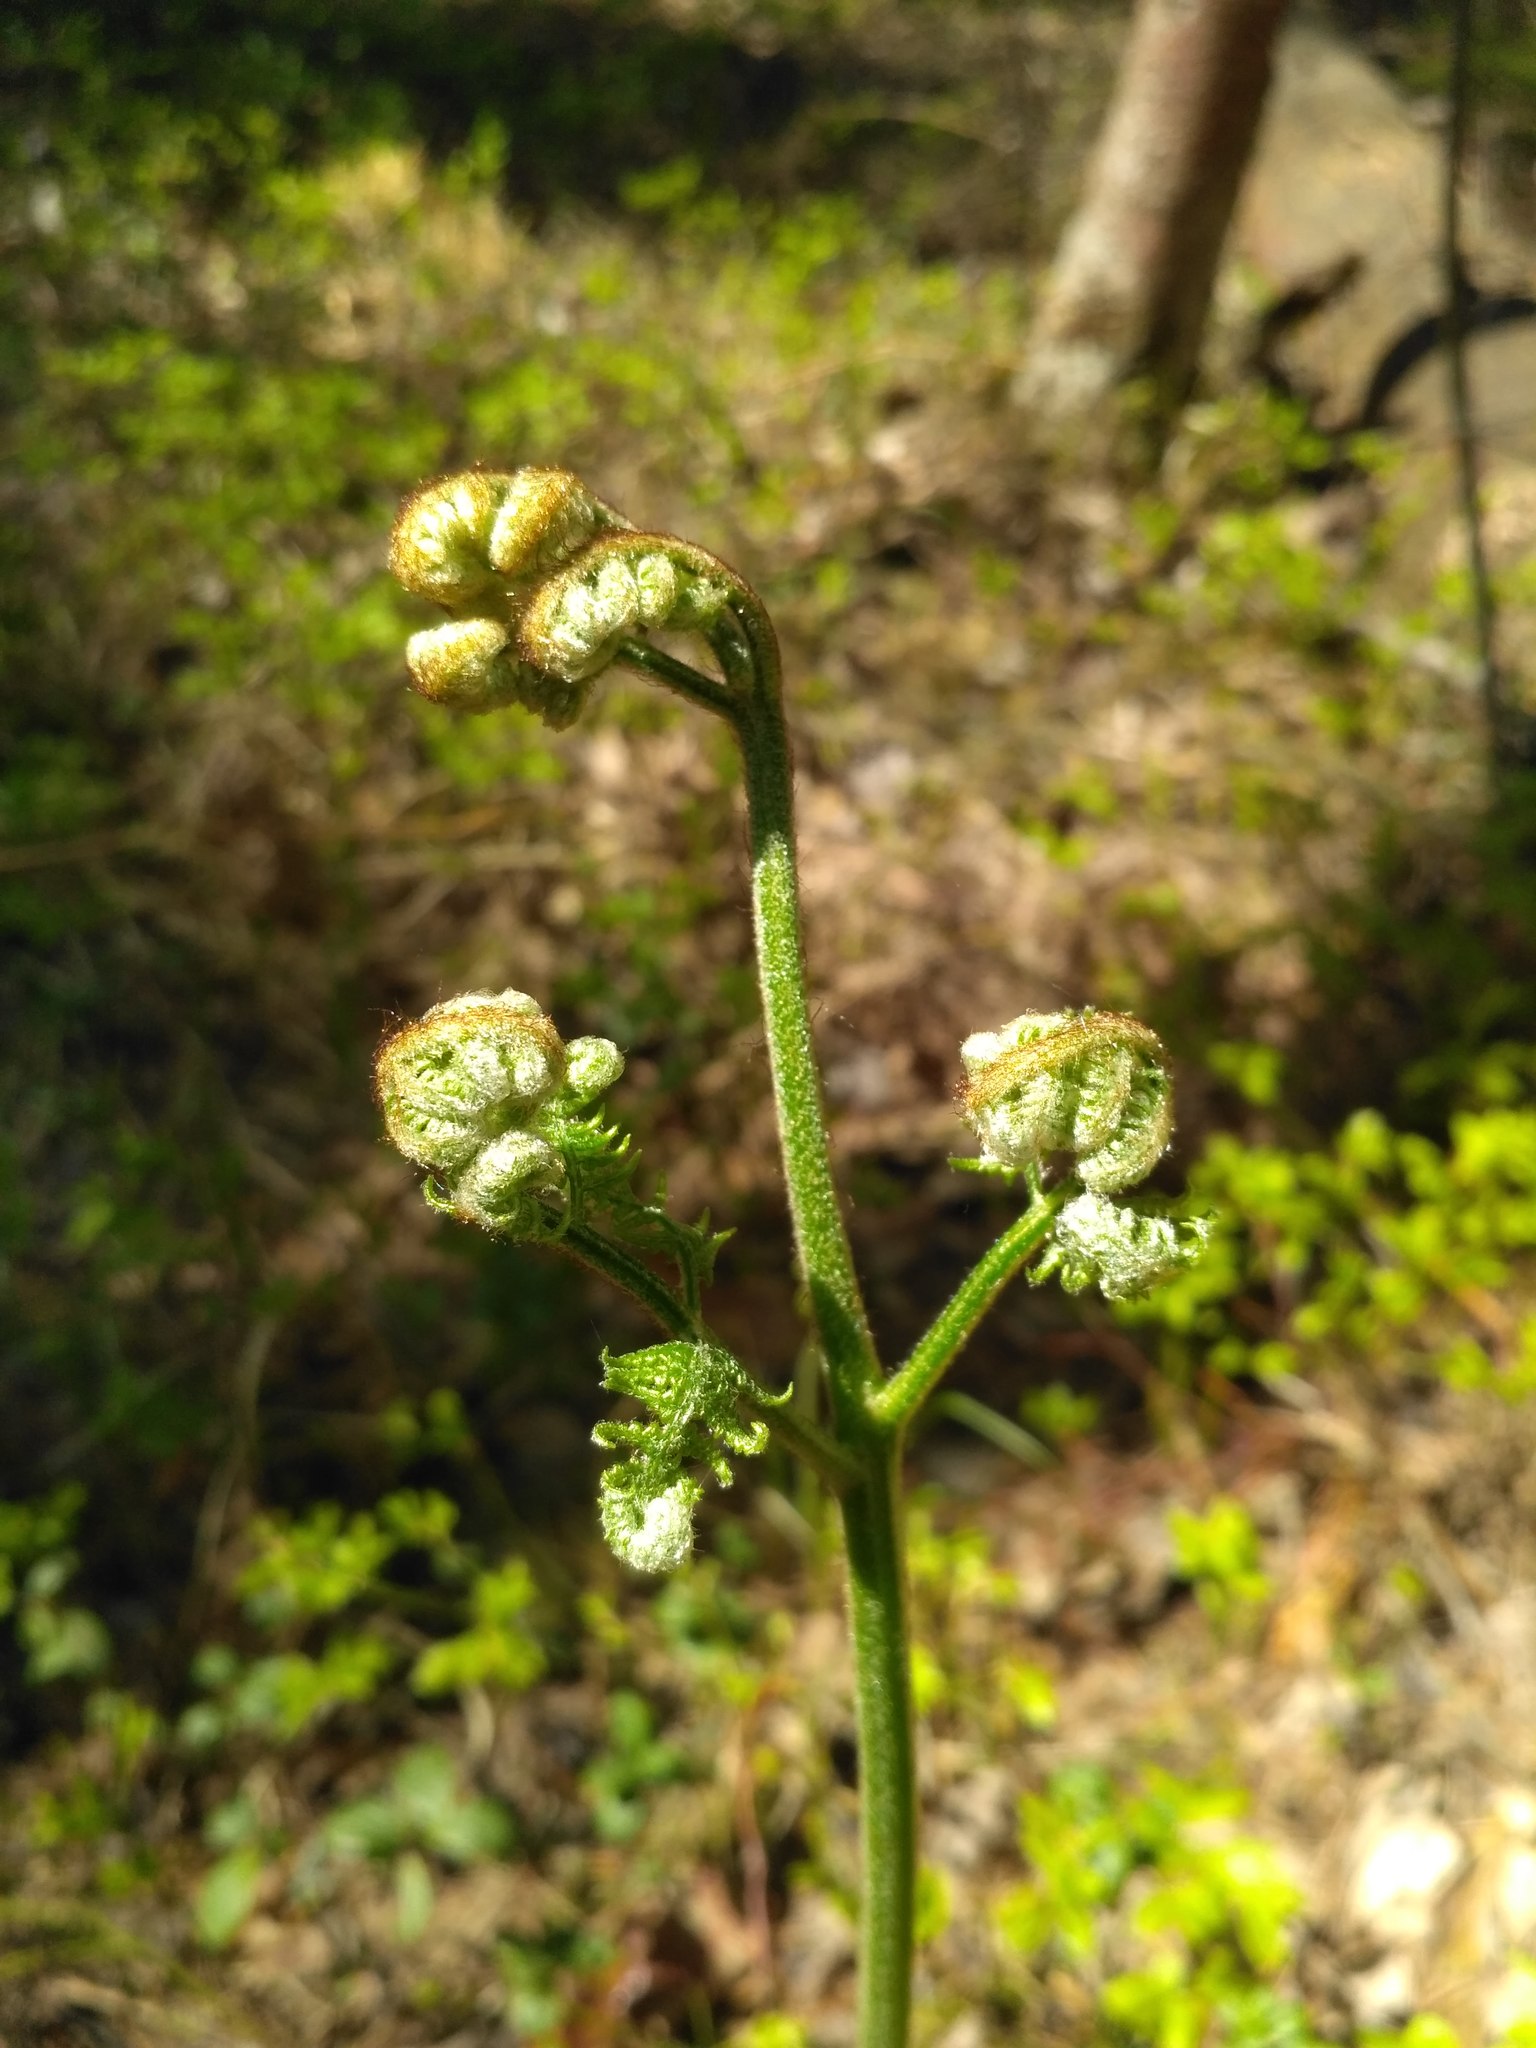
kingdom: Plantae
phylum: Tracheophyta
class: Polypodiopsida
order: Polypodiales
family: Dennstaedtiaceae
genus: Pteridium
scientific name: Pteridium aquilinum
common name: Bracken
